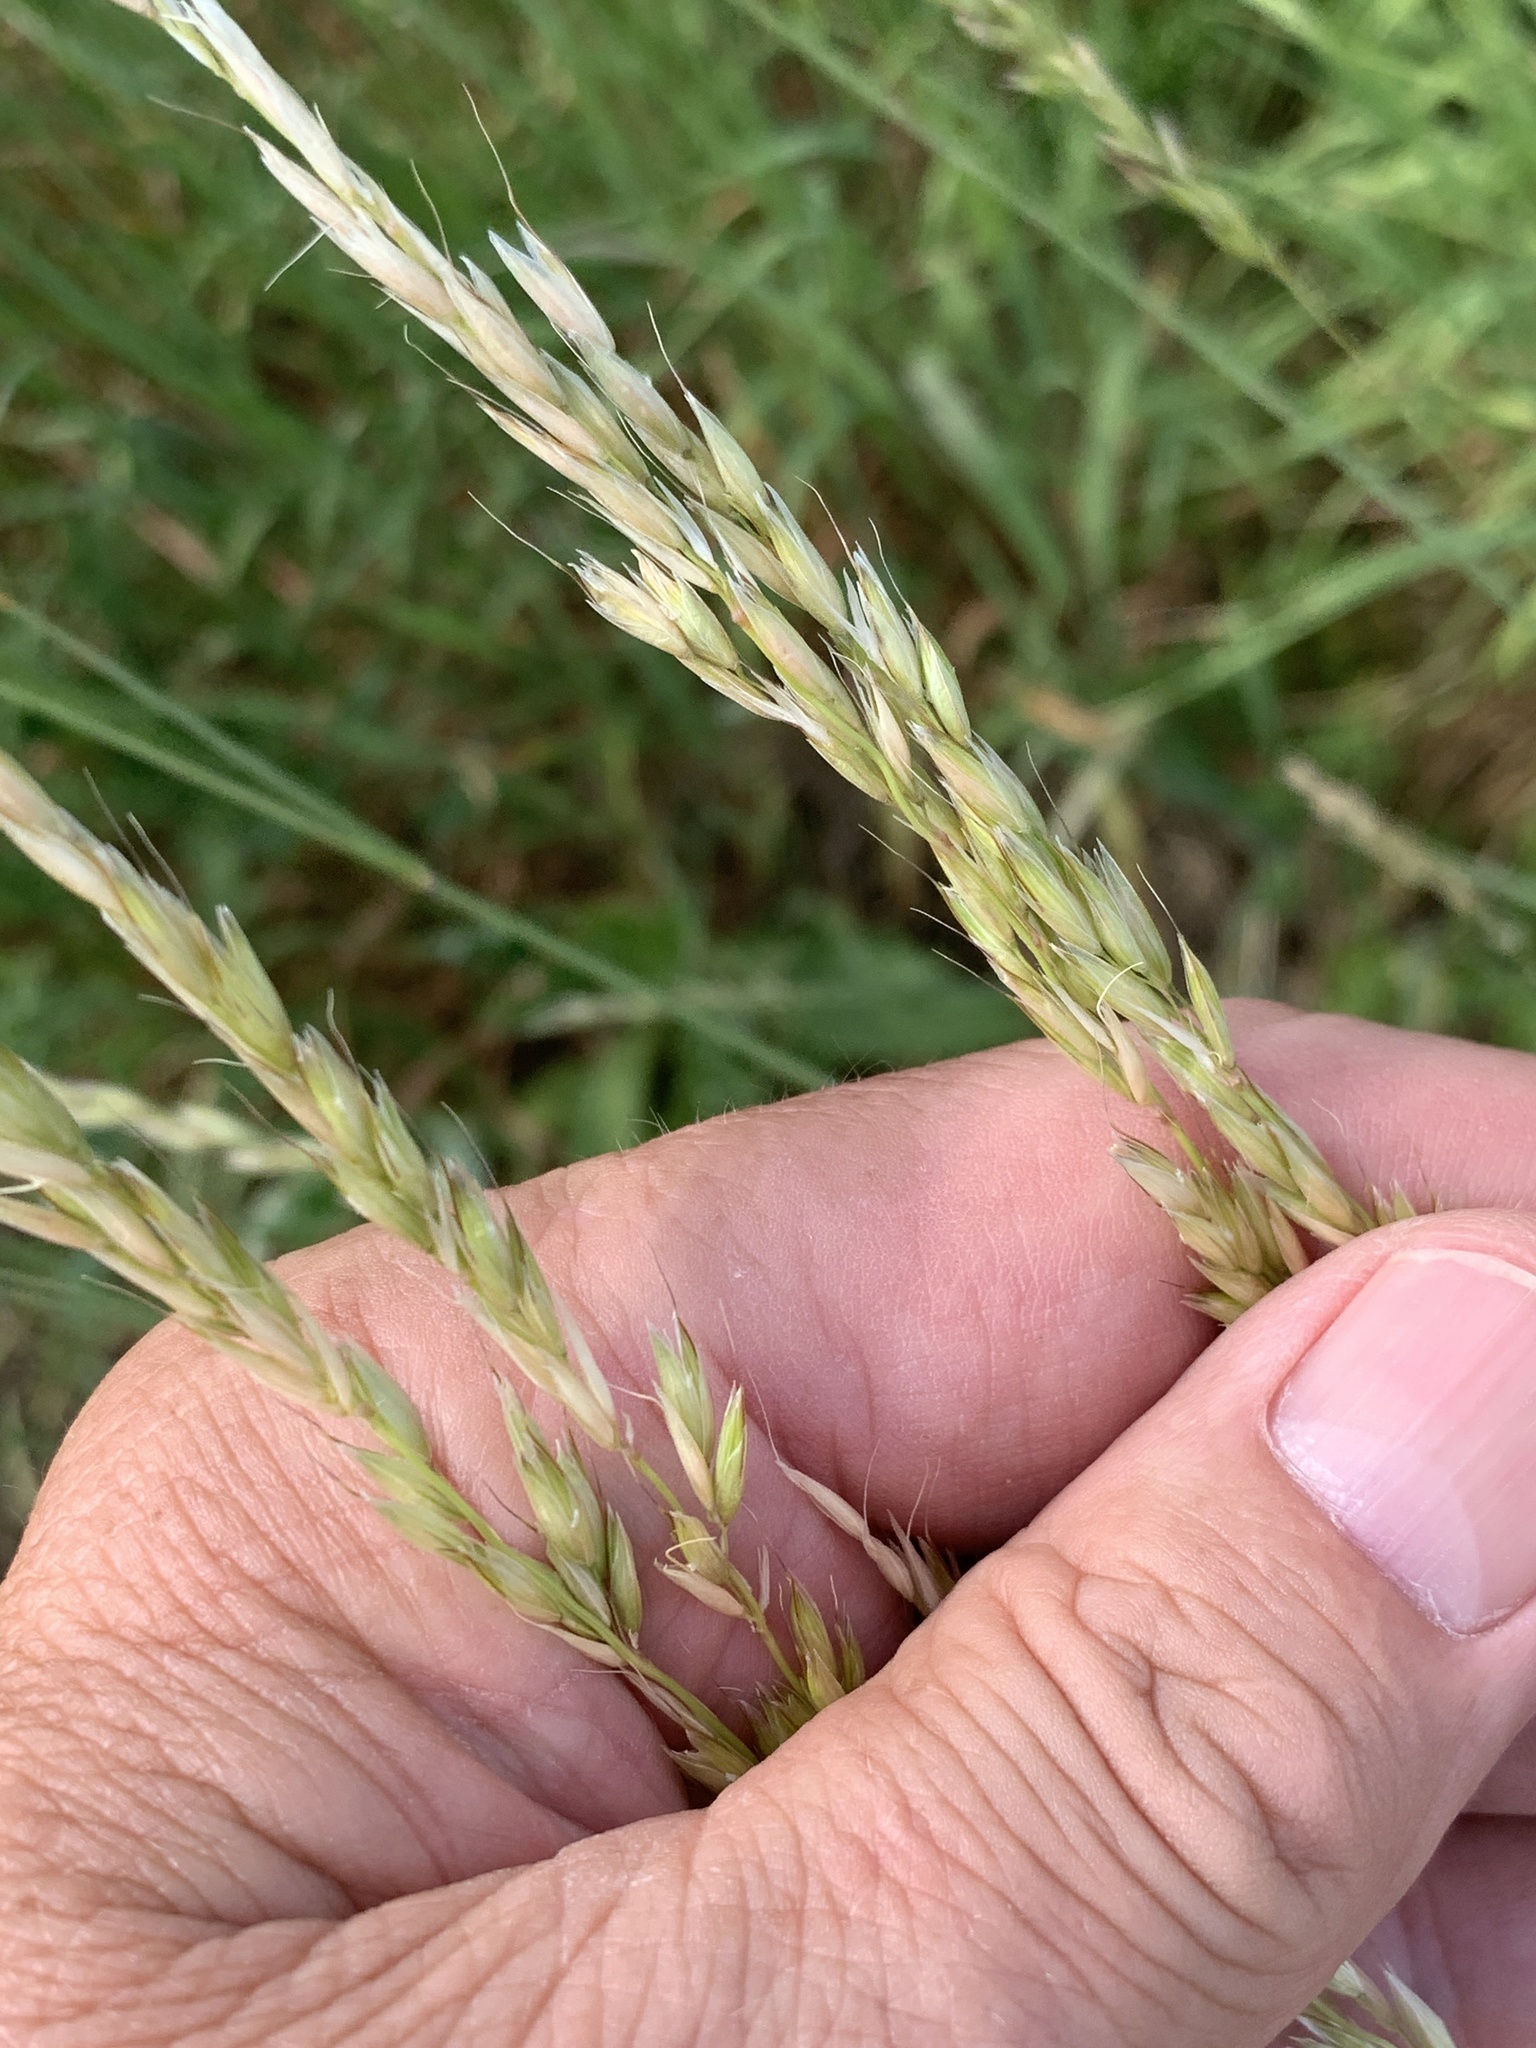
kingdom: Plantae
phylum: Tracheophyta
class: Liliopsida
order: Poales
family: Poaceae
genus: Arrhenatherum
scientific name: Arrhenatherum elatius
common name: Tall oatgrass
